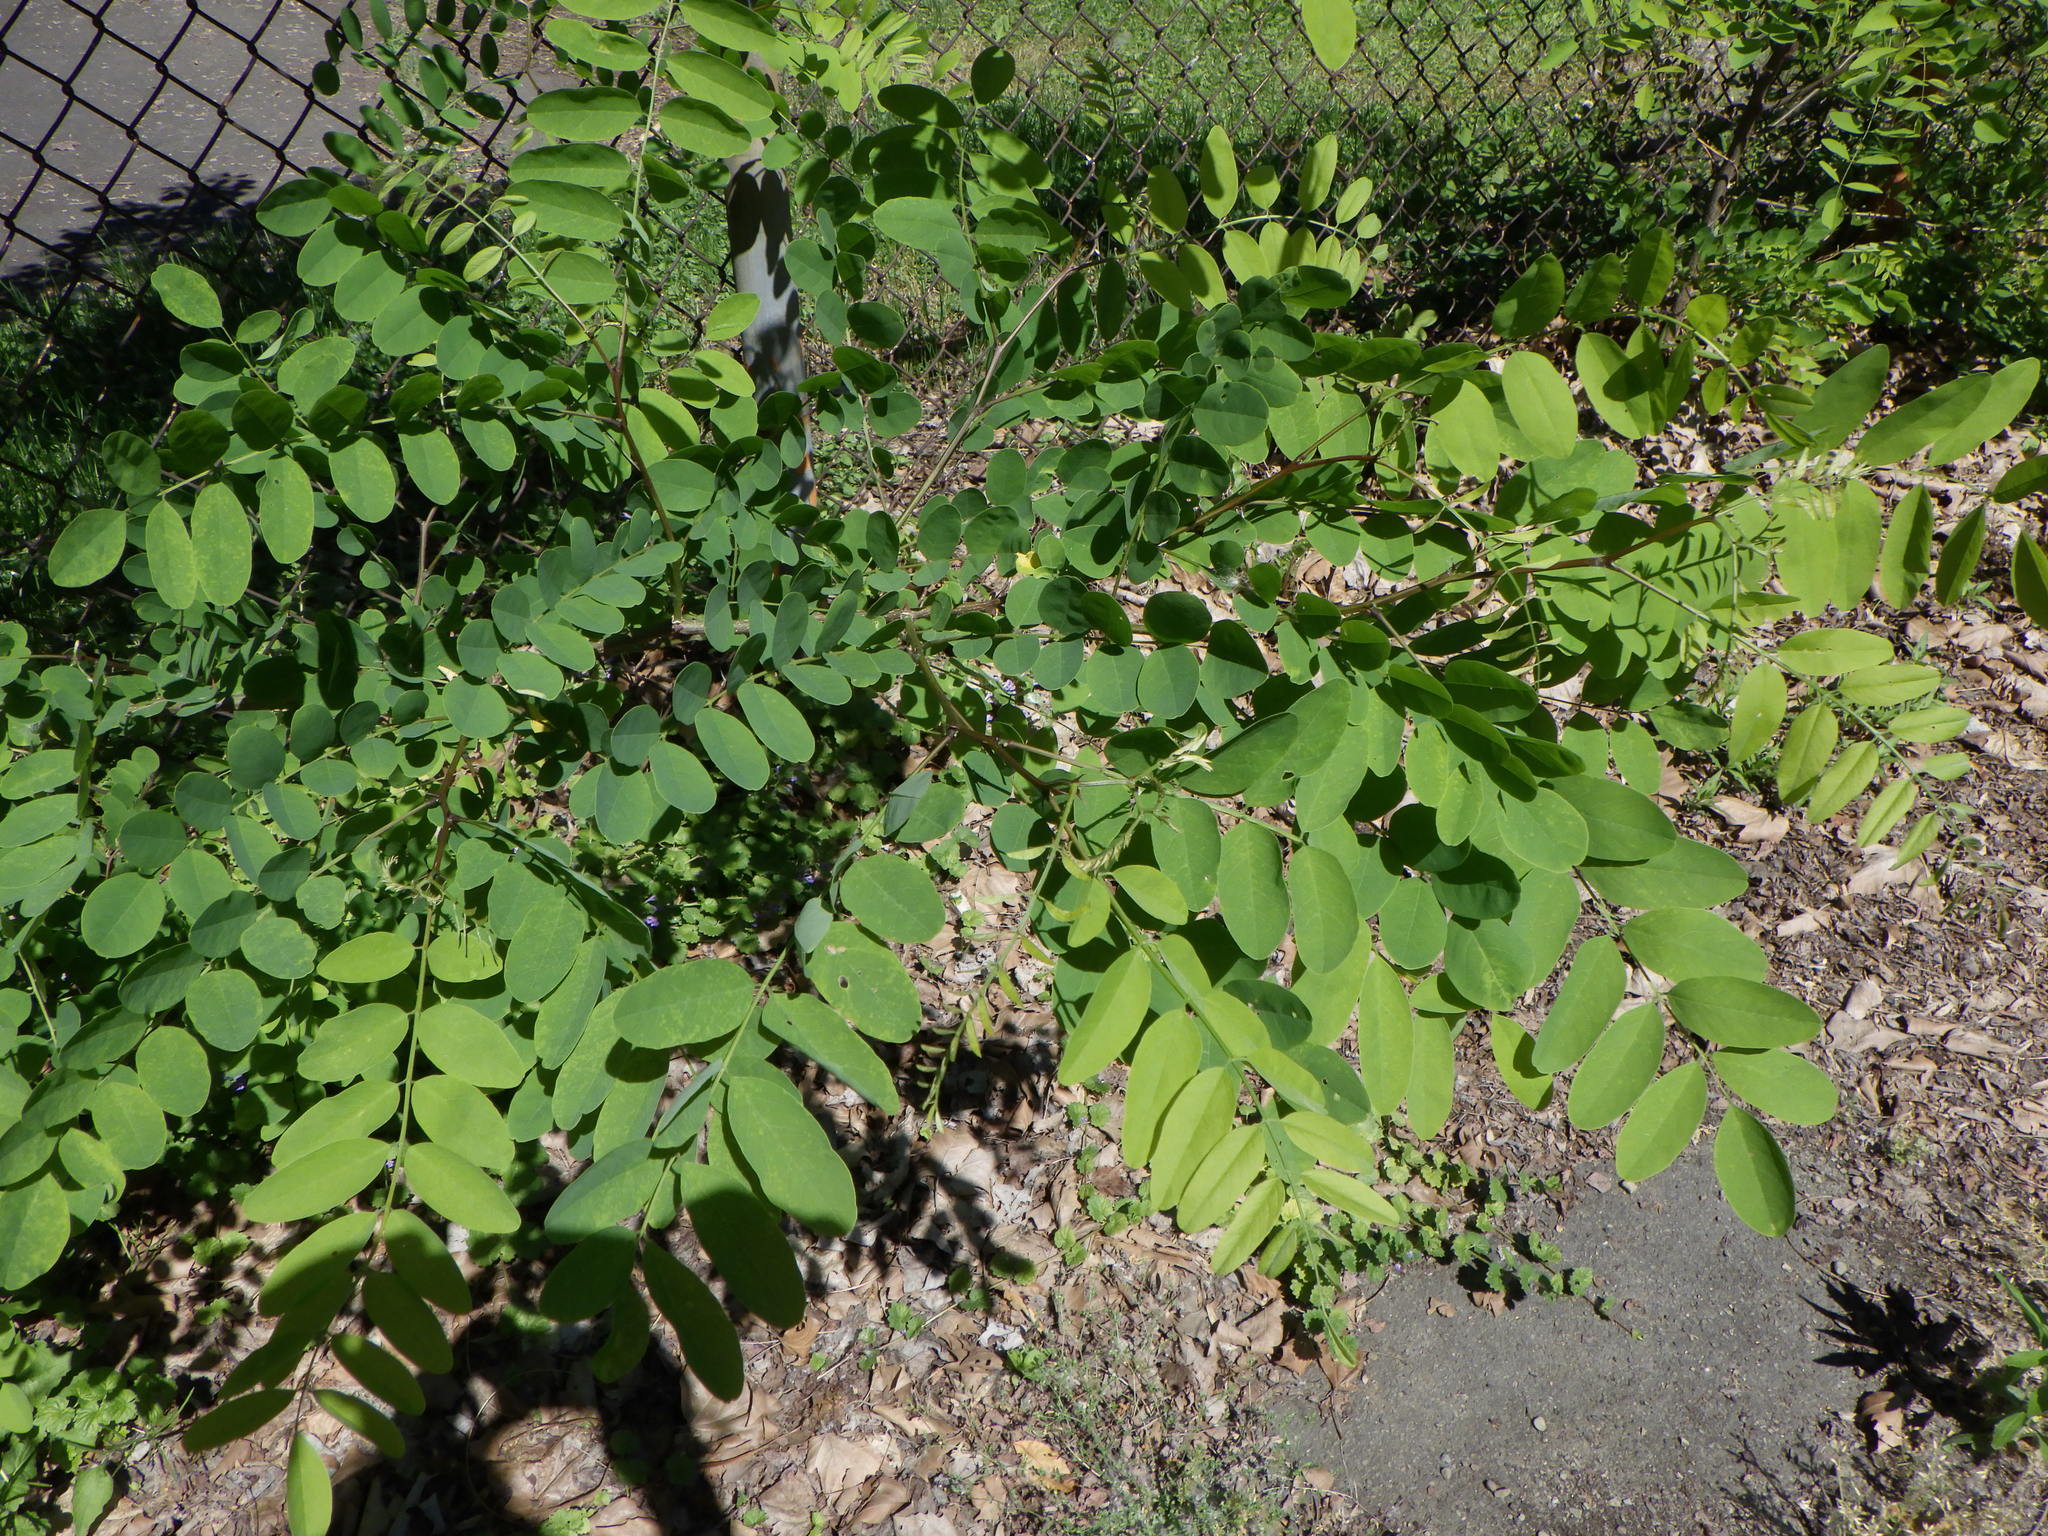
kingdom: Plantae
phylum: Tracheophyta
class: Magnoliopsida
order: Fabales
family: Fabaceae
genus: Robinia
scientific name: Robinia pseudoacacia
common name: Black locust
